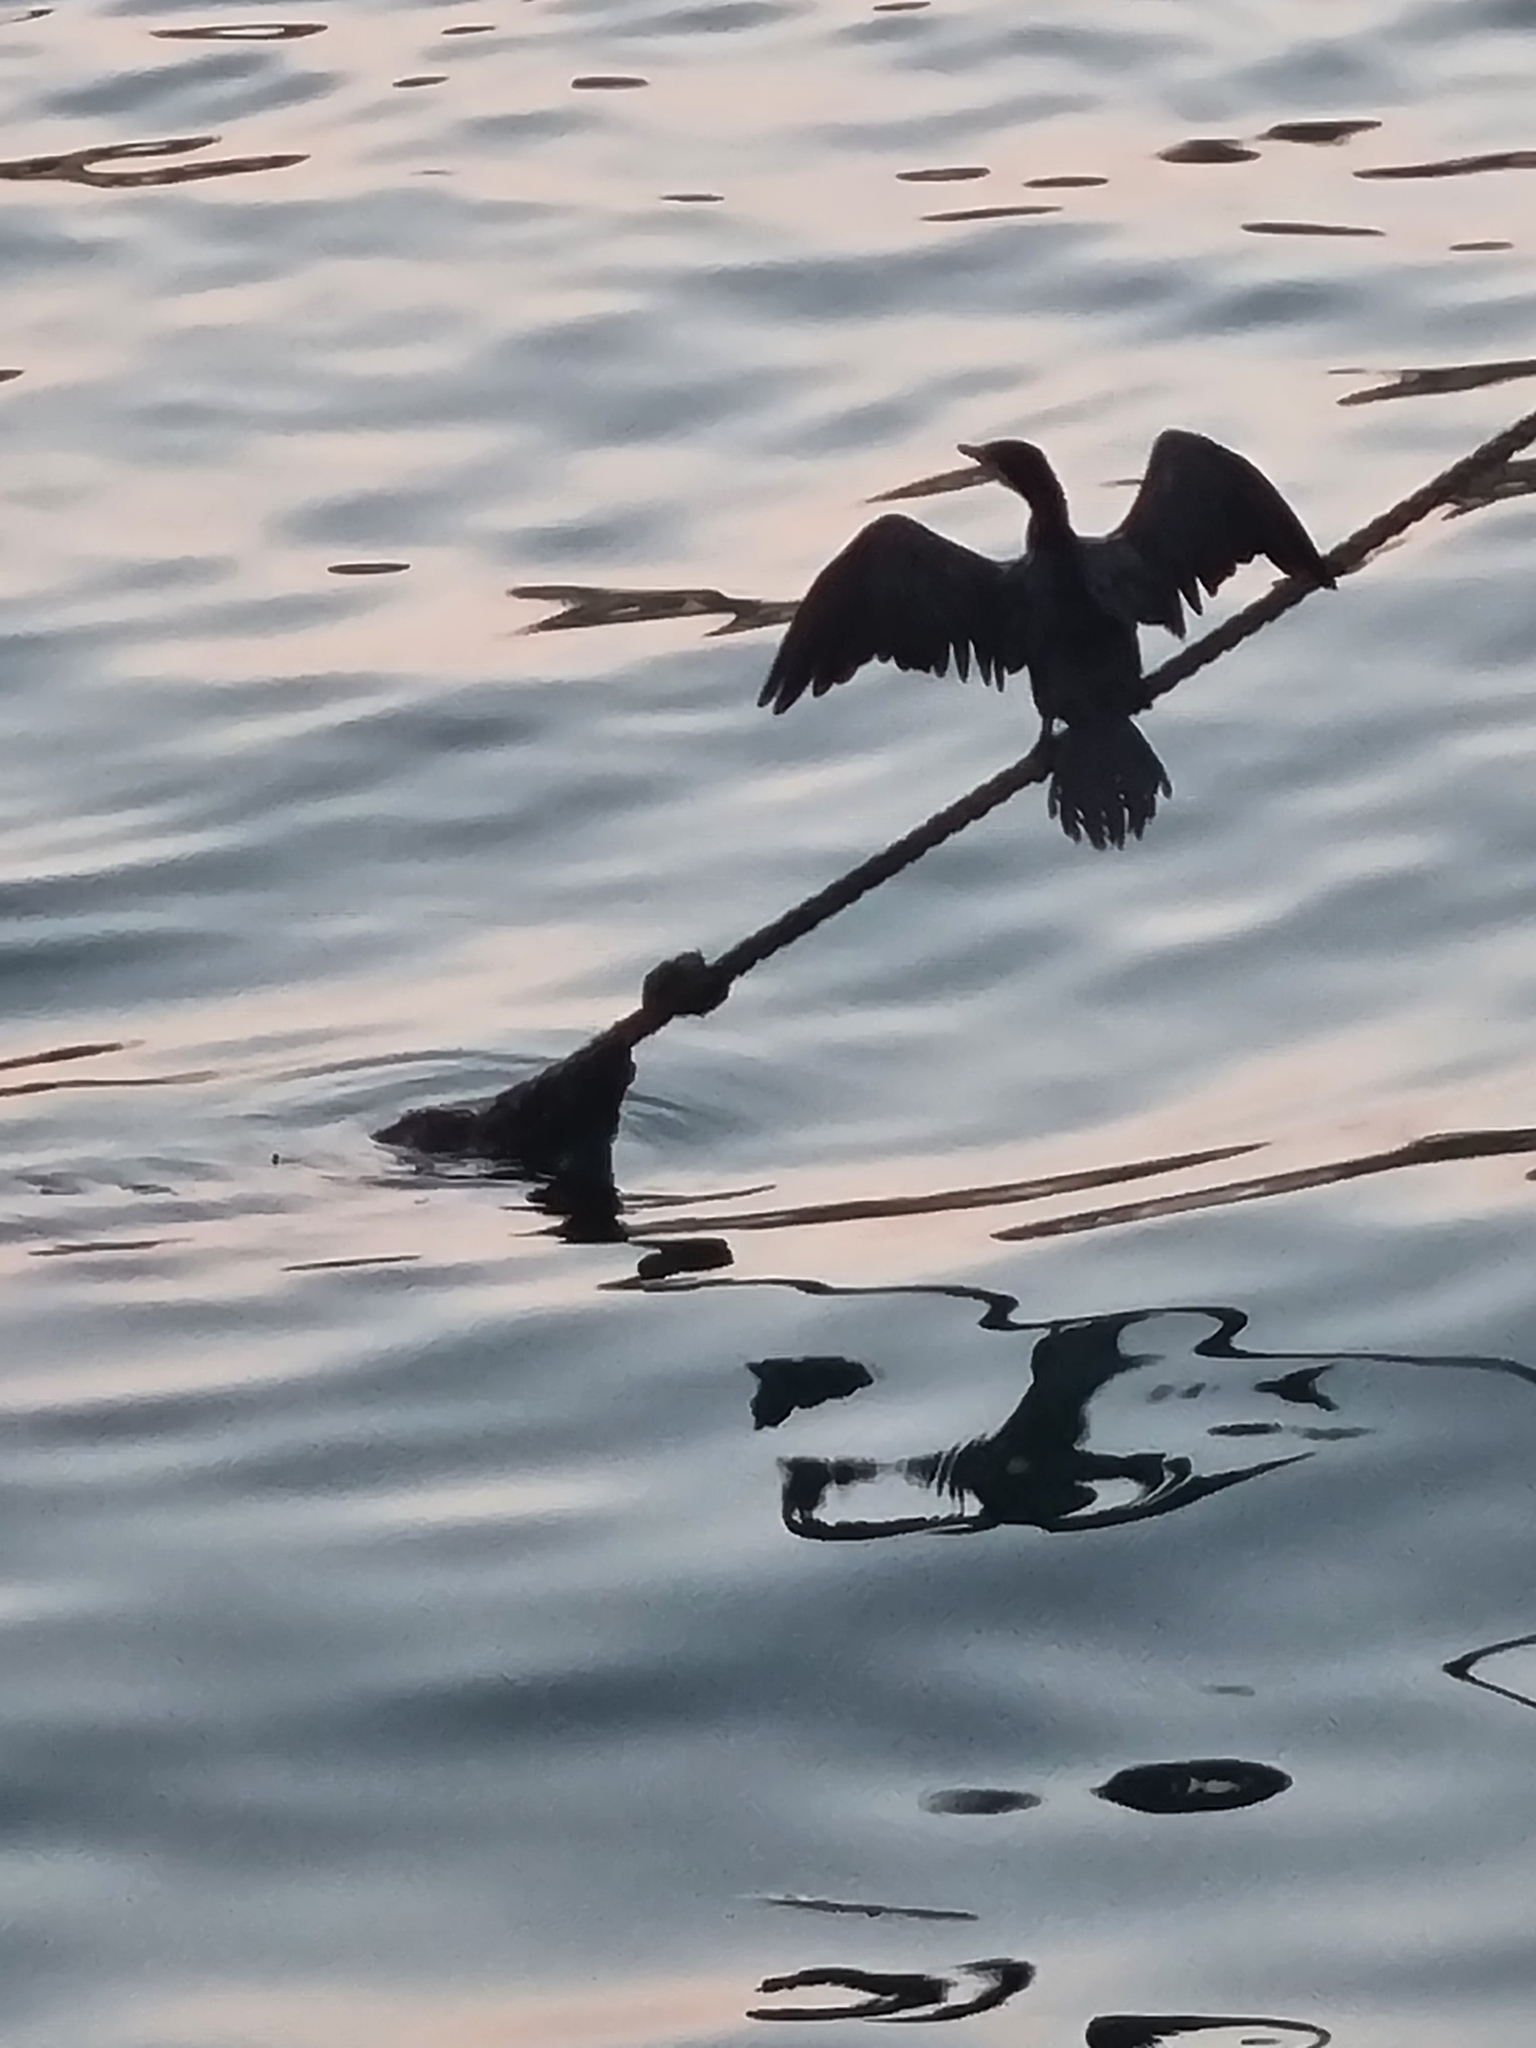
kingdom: Animalia
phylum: Chordata
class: Aves
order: Suliformes
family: Phalacrocoracidae
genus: Microcarbo
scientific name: Microcarbo melanoleucos
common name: Little pied cormorant
